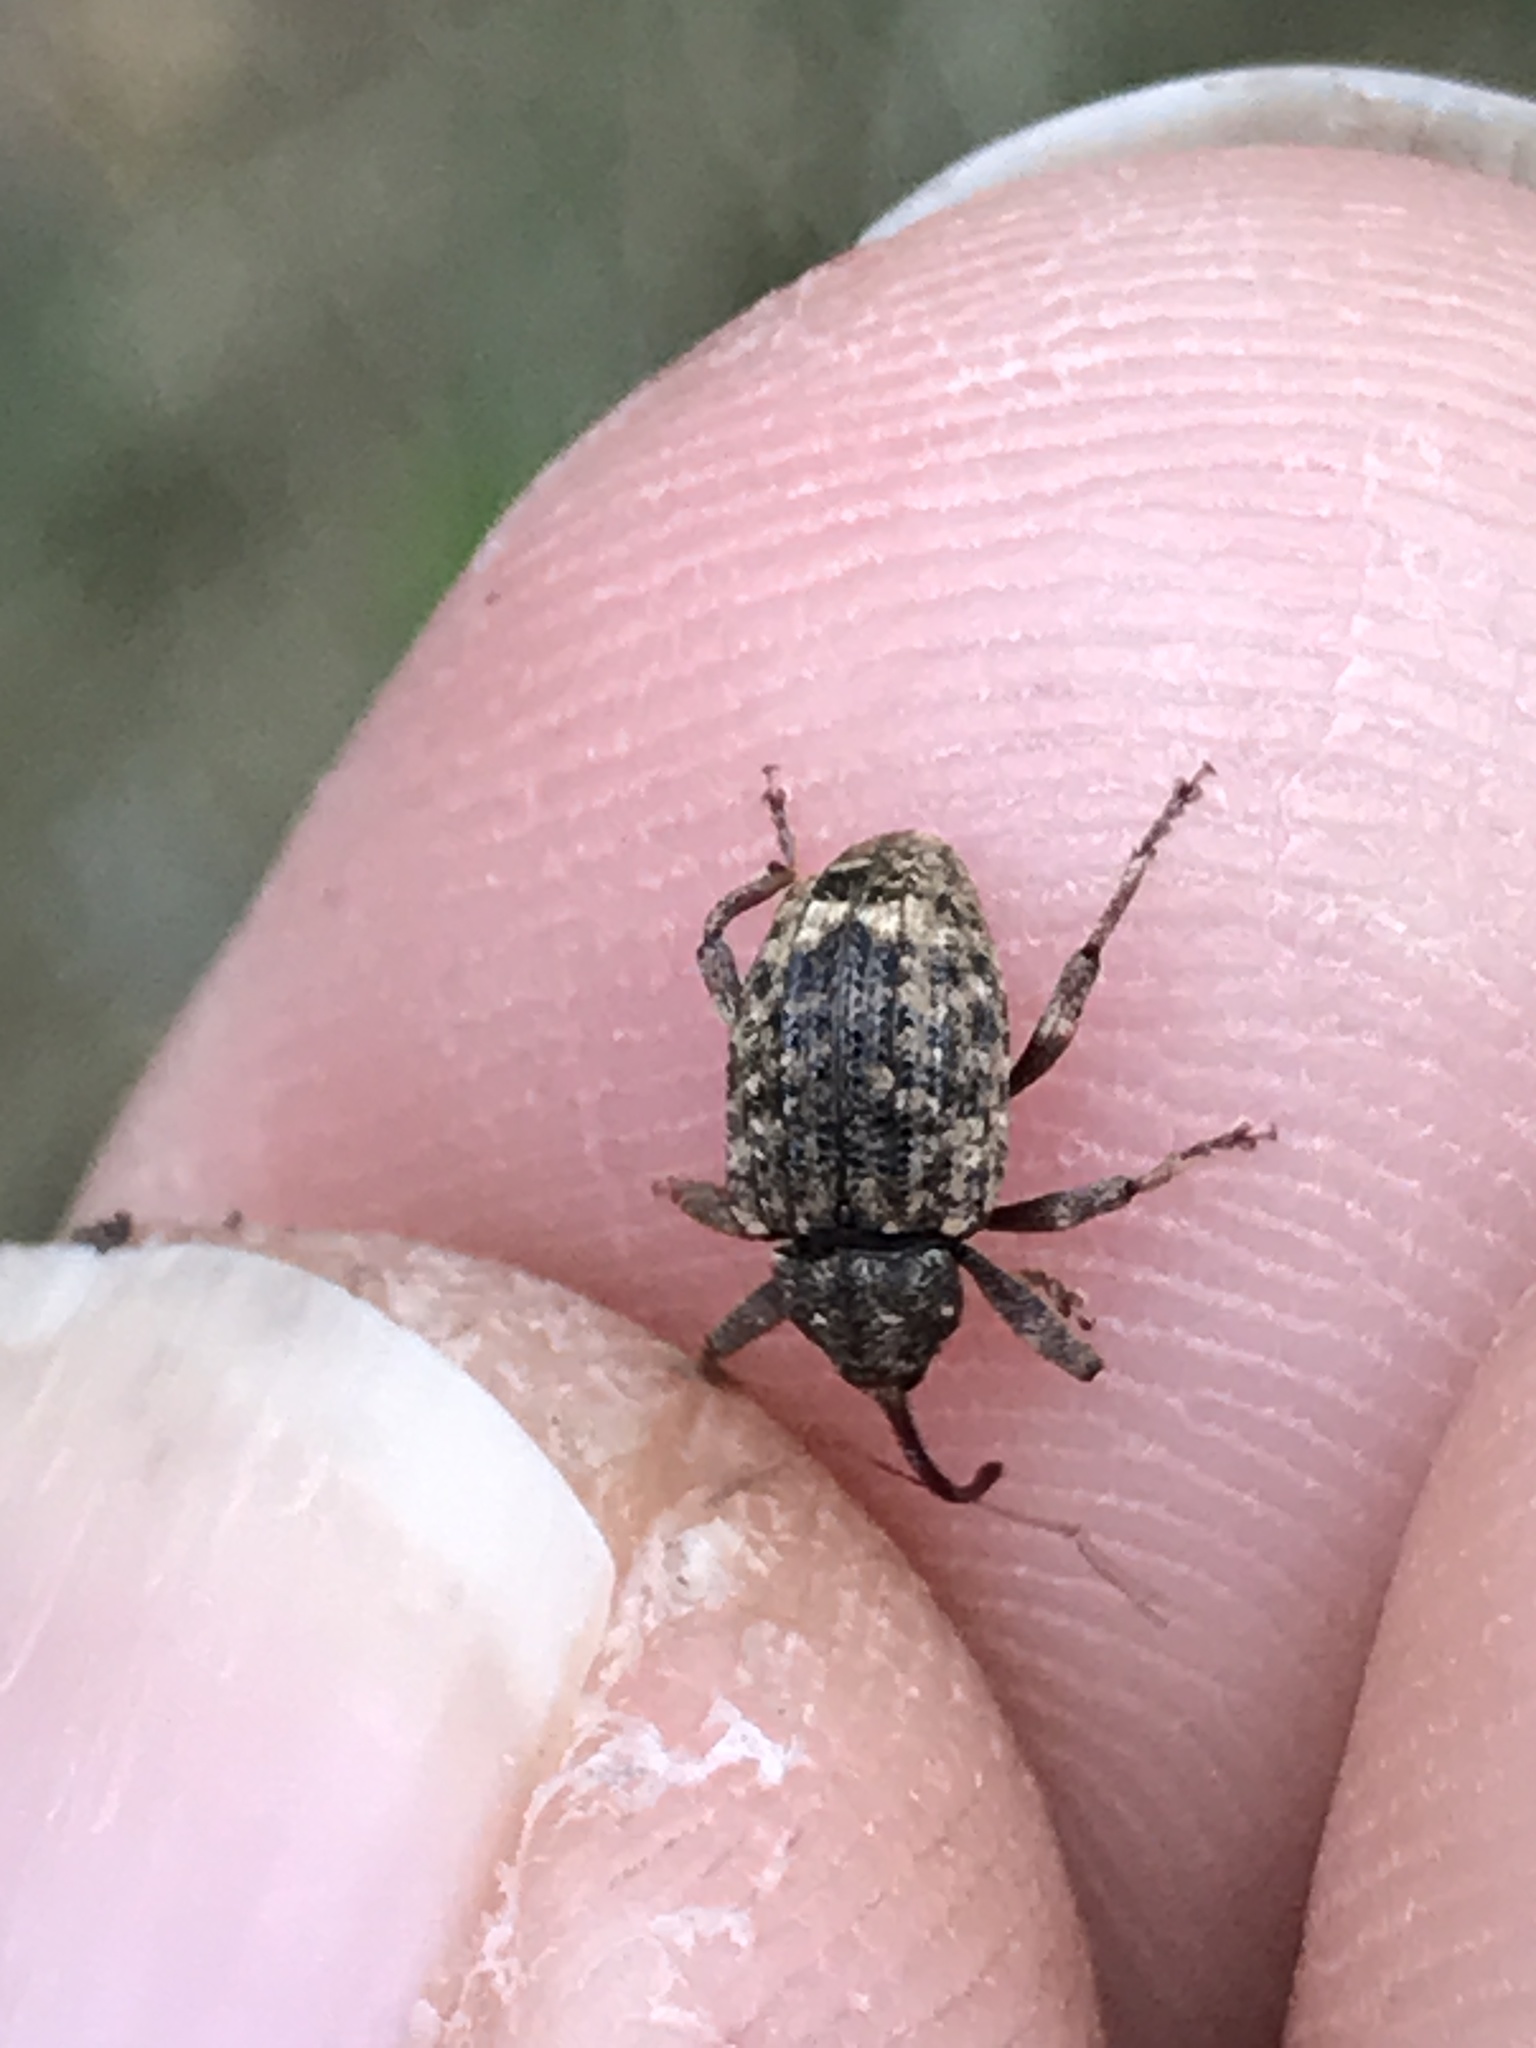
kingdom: Animalia
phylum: Arthropoda
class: Insecta
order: Coleoptera
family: Curculionidae
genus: Conotrachelus
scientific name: Conotrachelus naso
